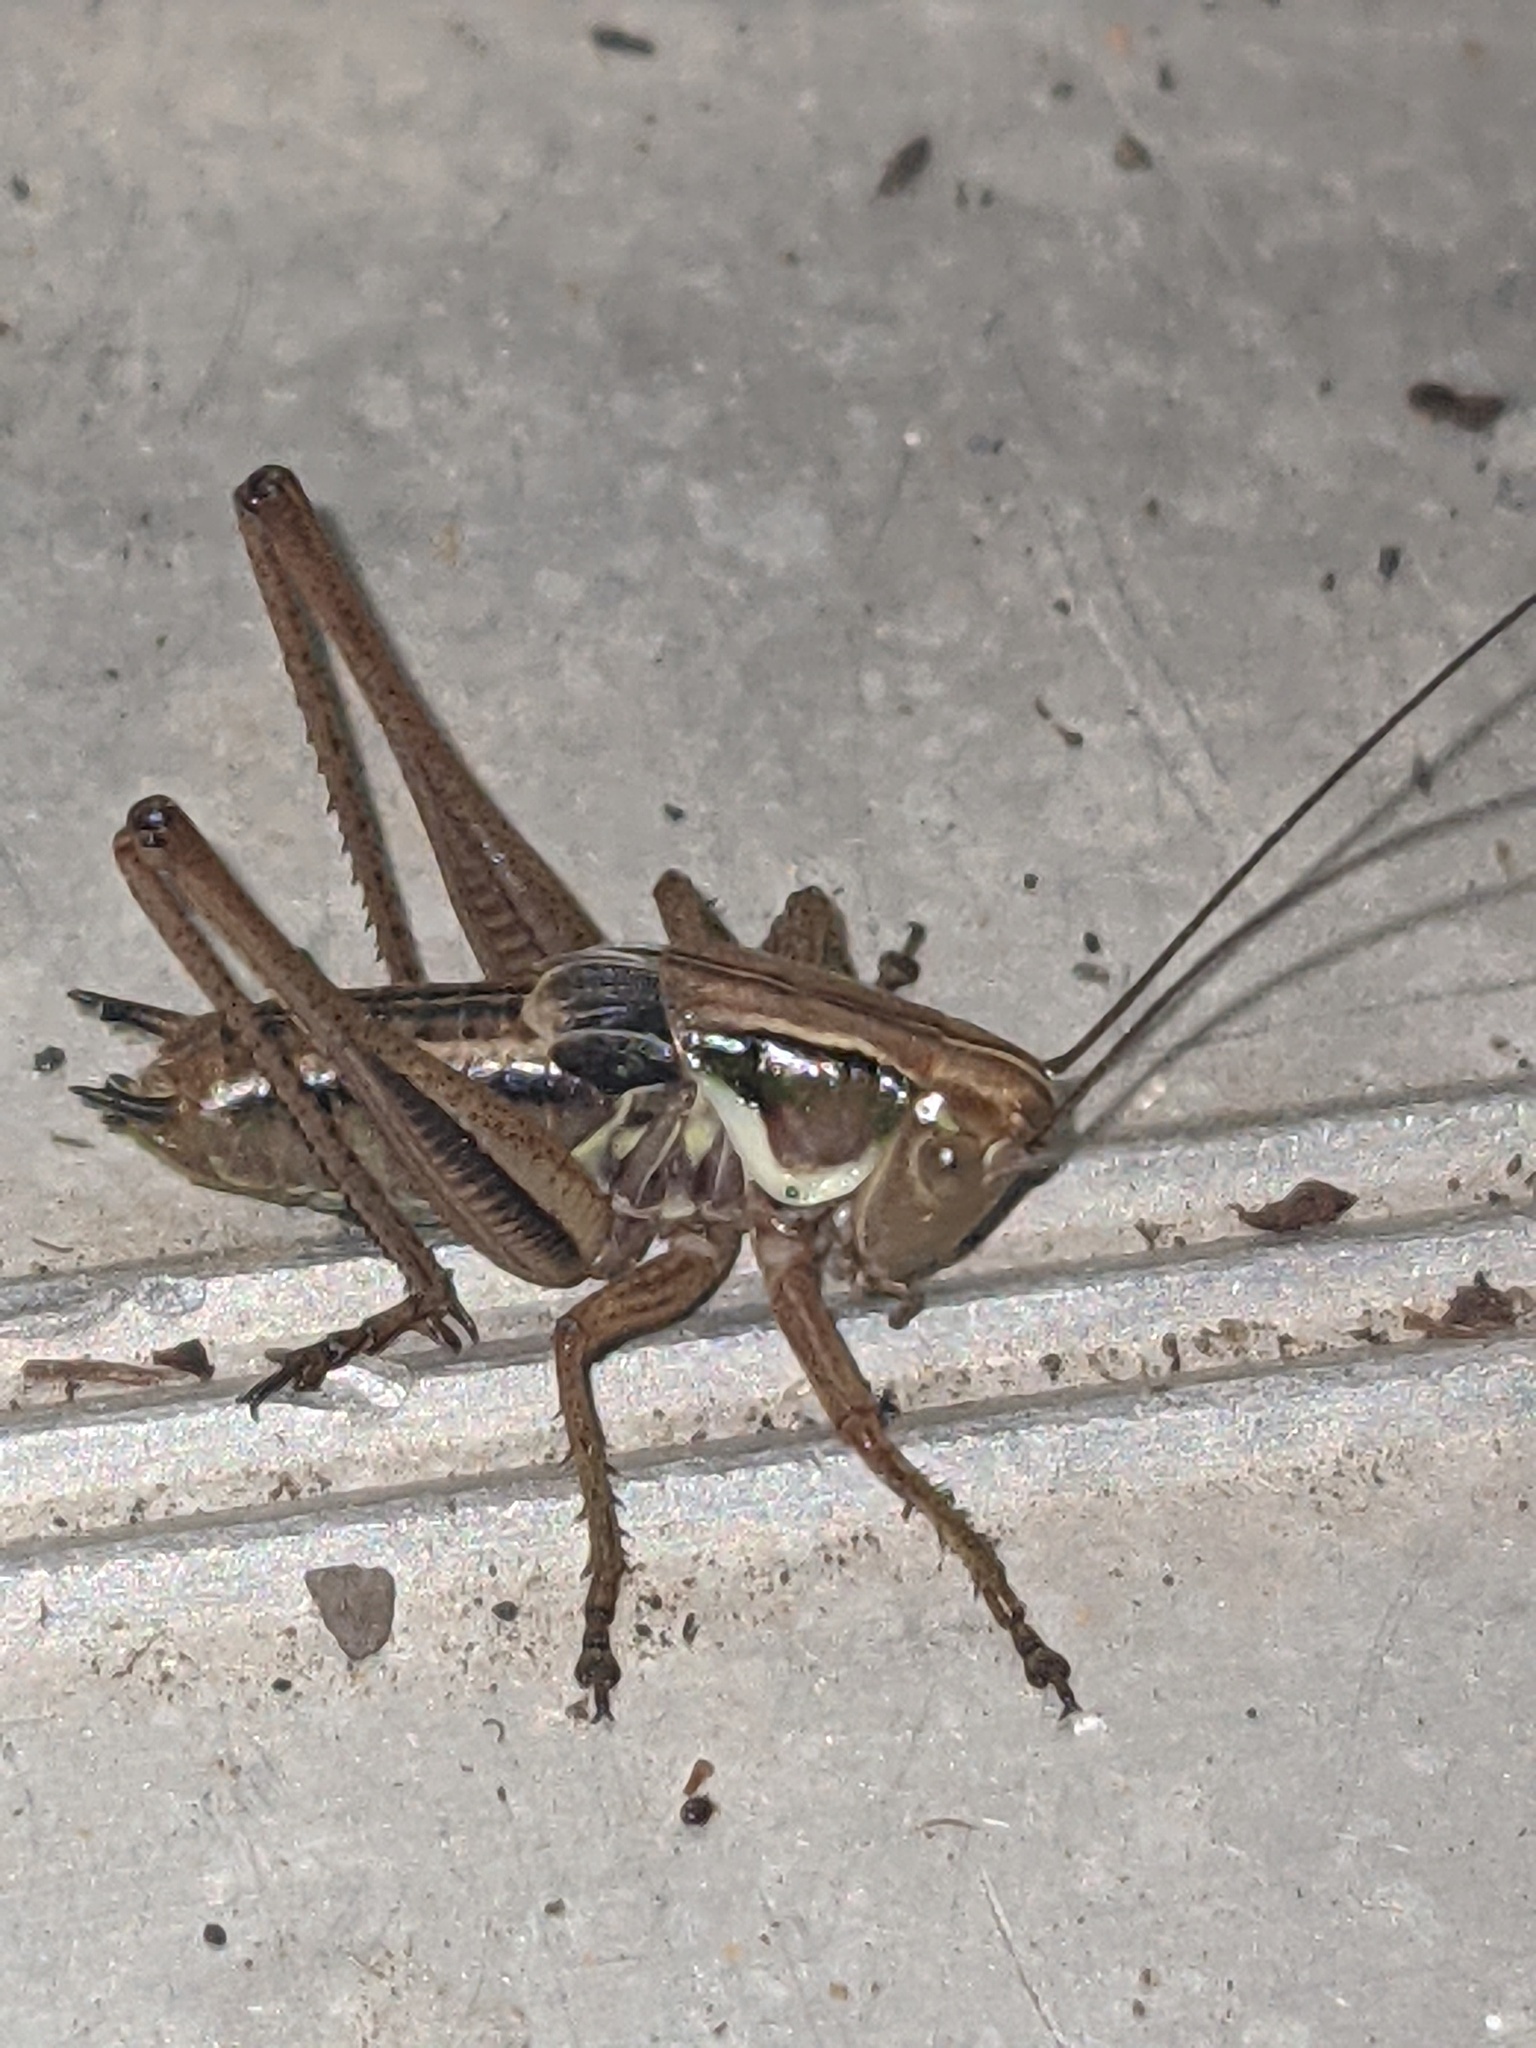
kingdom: Animalia
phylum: Arthropoda
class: Insecta
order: Orthoptera
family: Tettigoniidae
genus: Roeseliana
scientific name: Roeseliana roeselii
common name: Roesel's bush cricket
